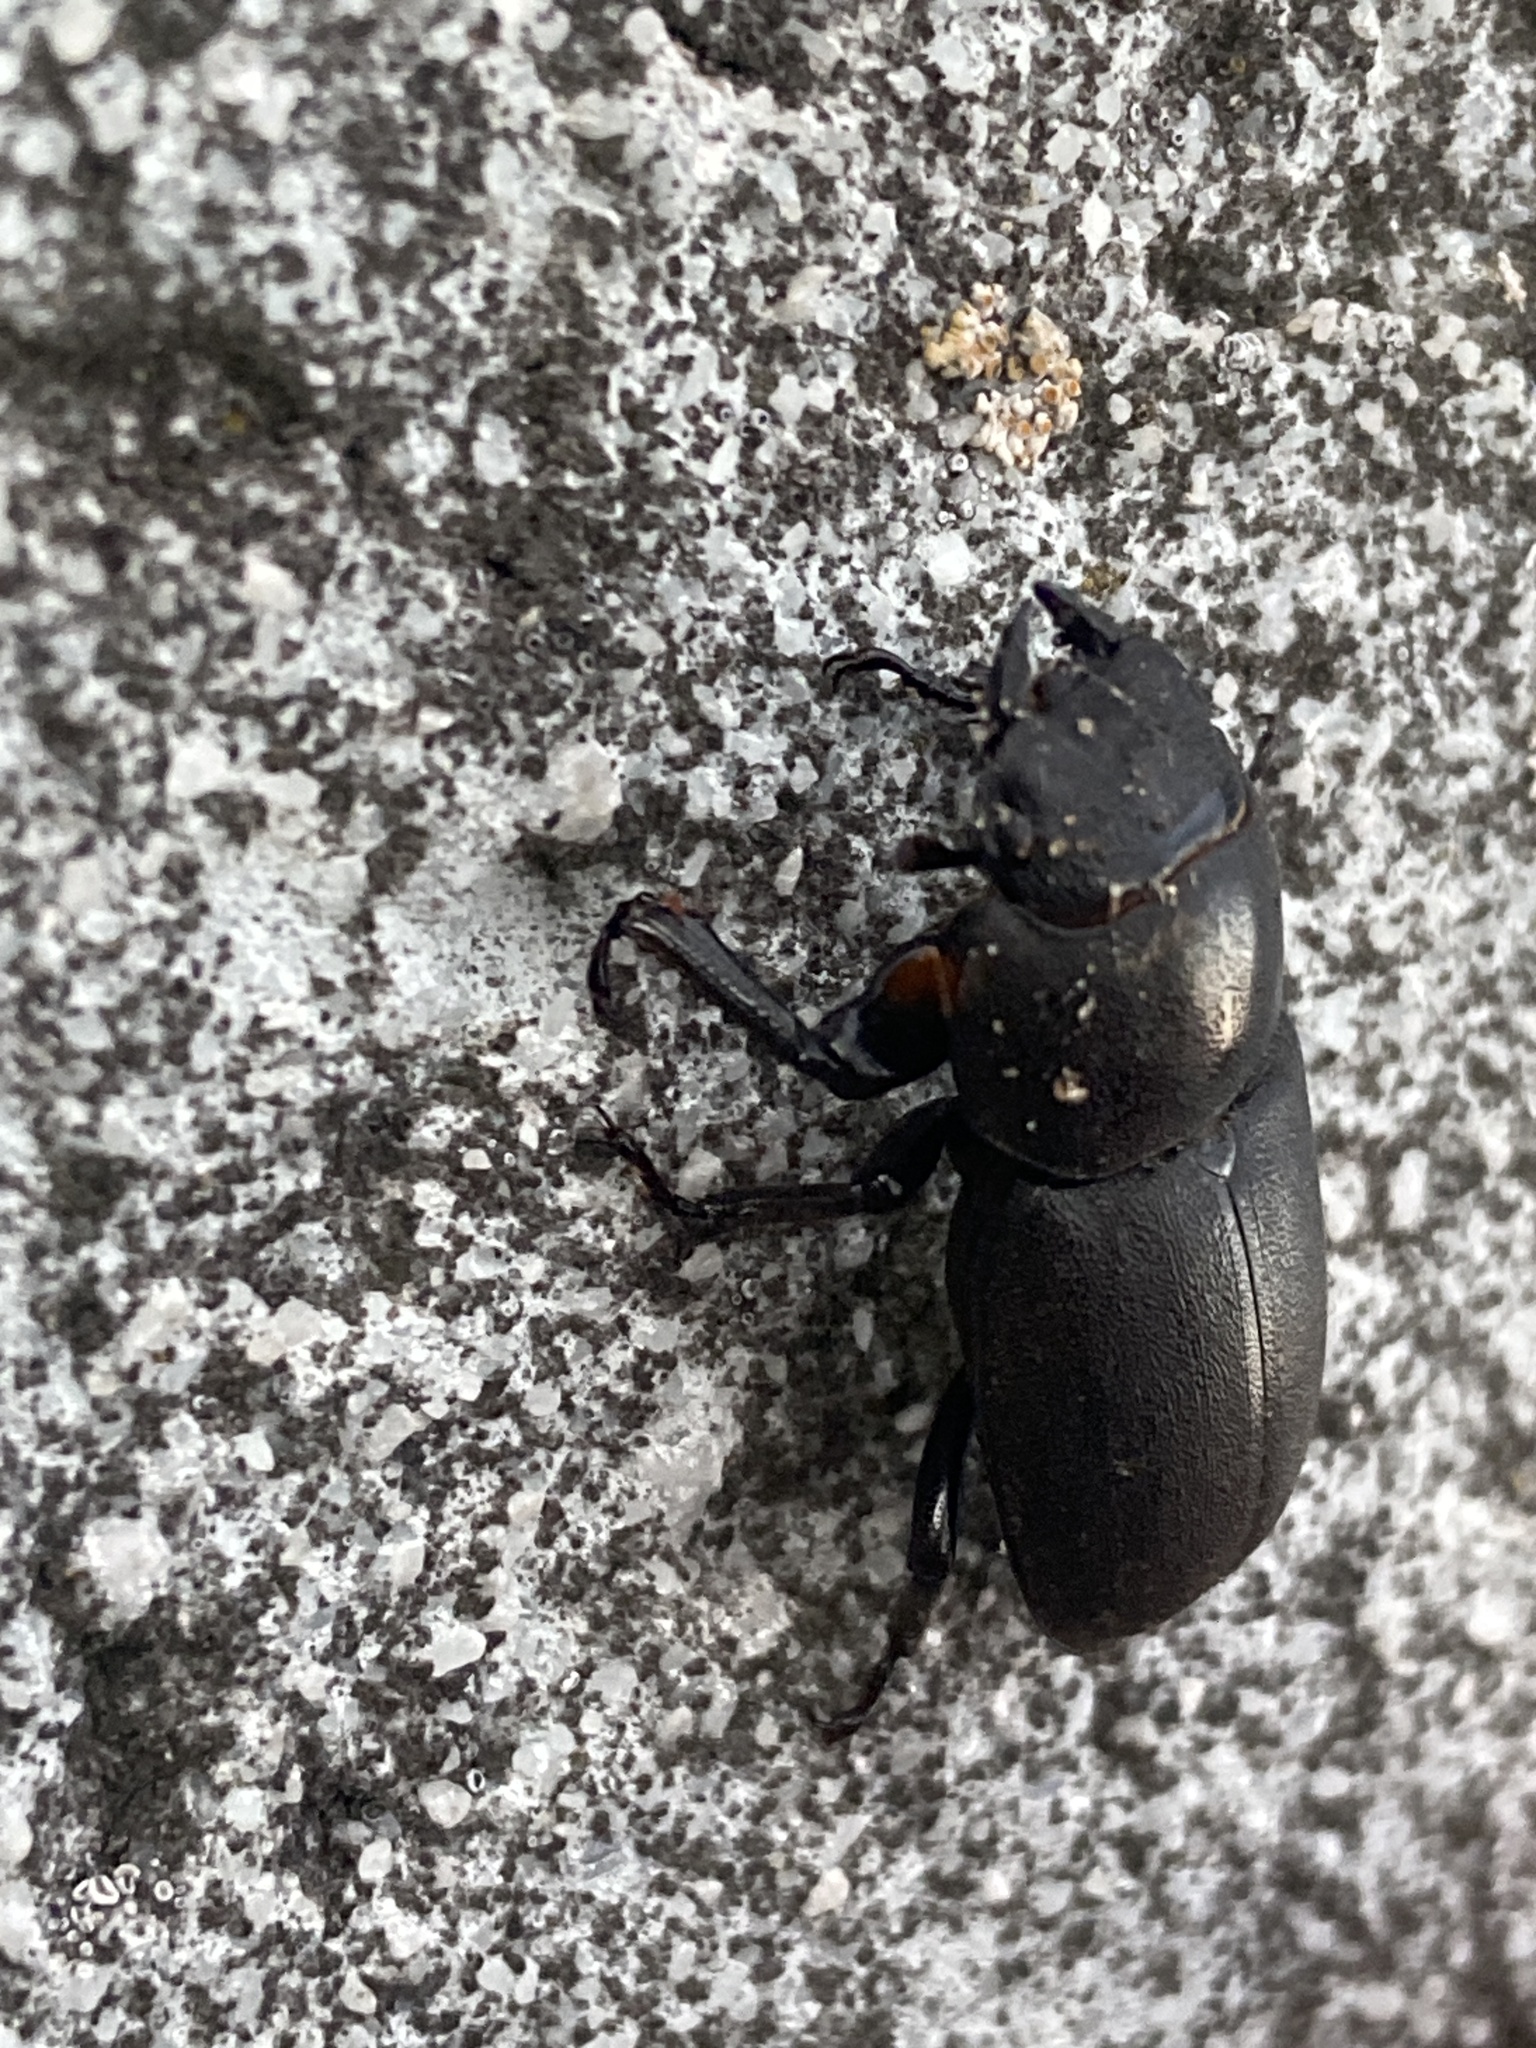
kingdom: Animalia
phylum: Arthropoda
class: Insecta
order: Coleoptera
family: Lucanidae
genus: Dorcus
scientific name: Dorcus parallelipipedus
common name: Lesser stag beetle
